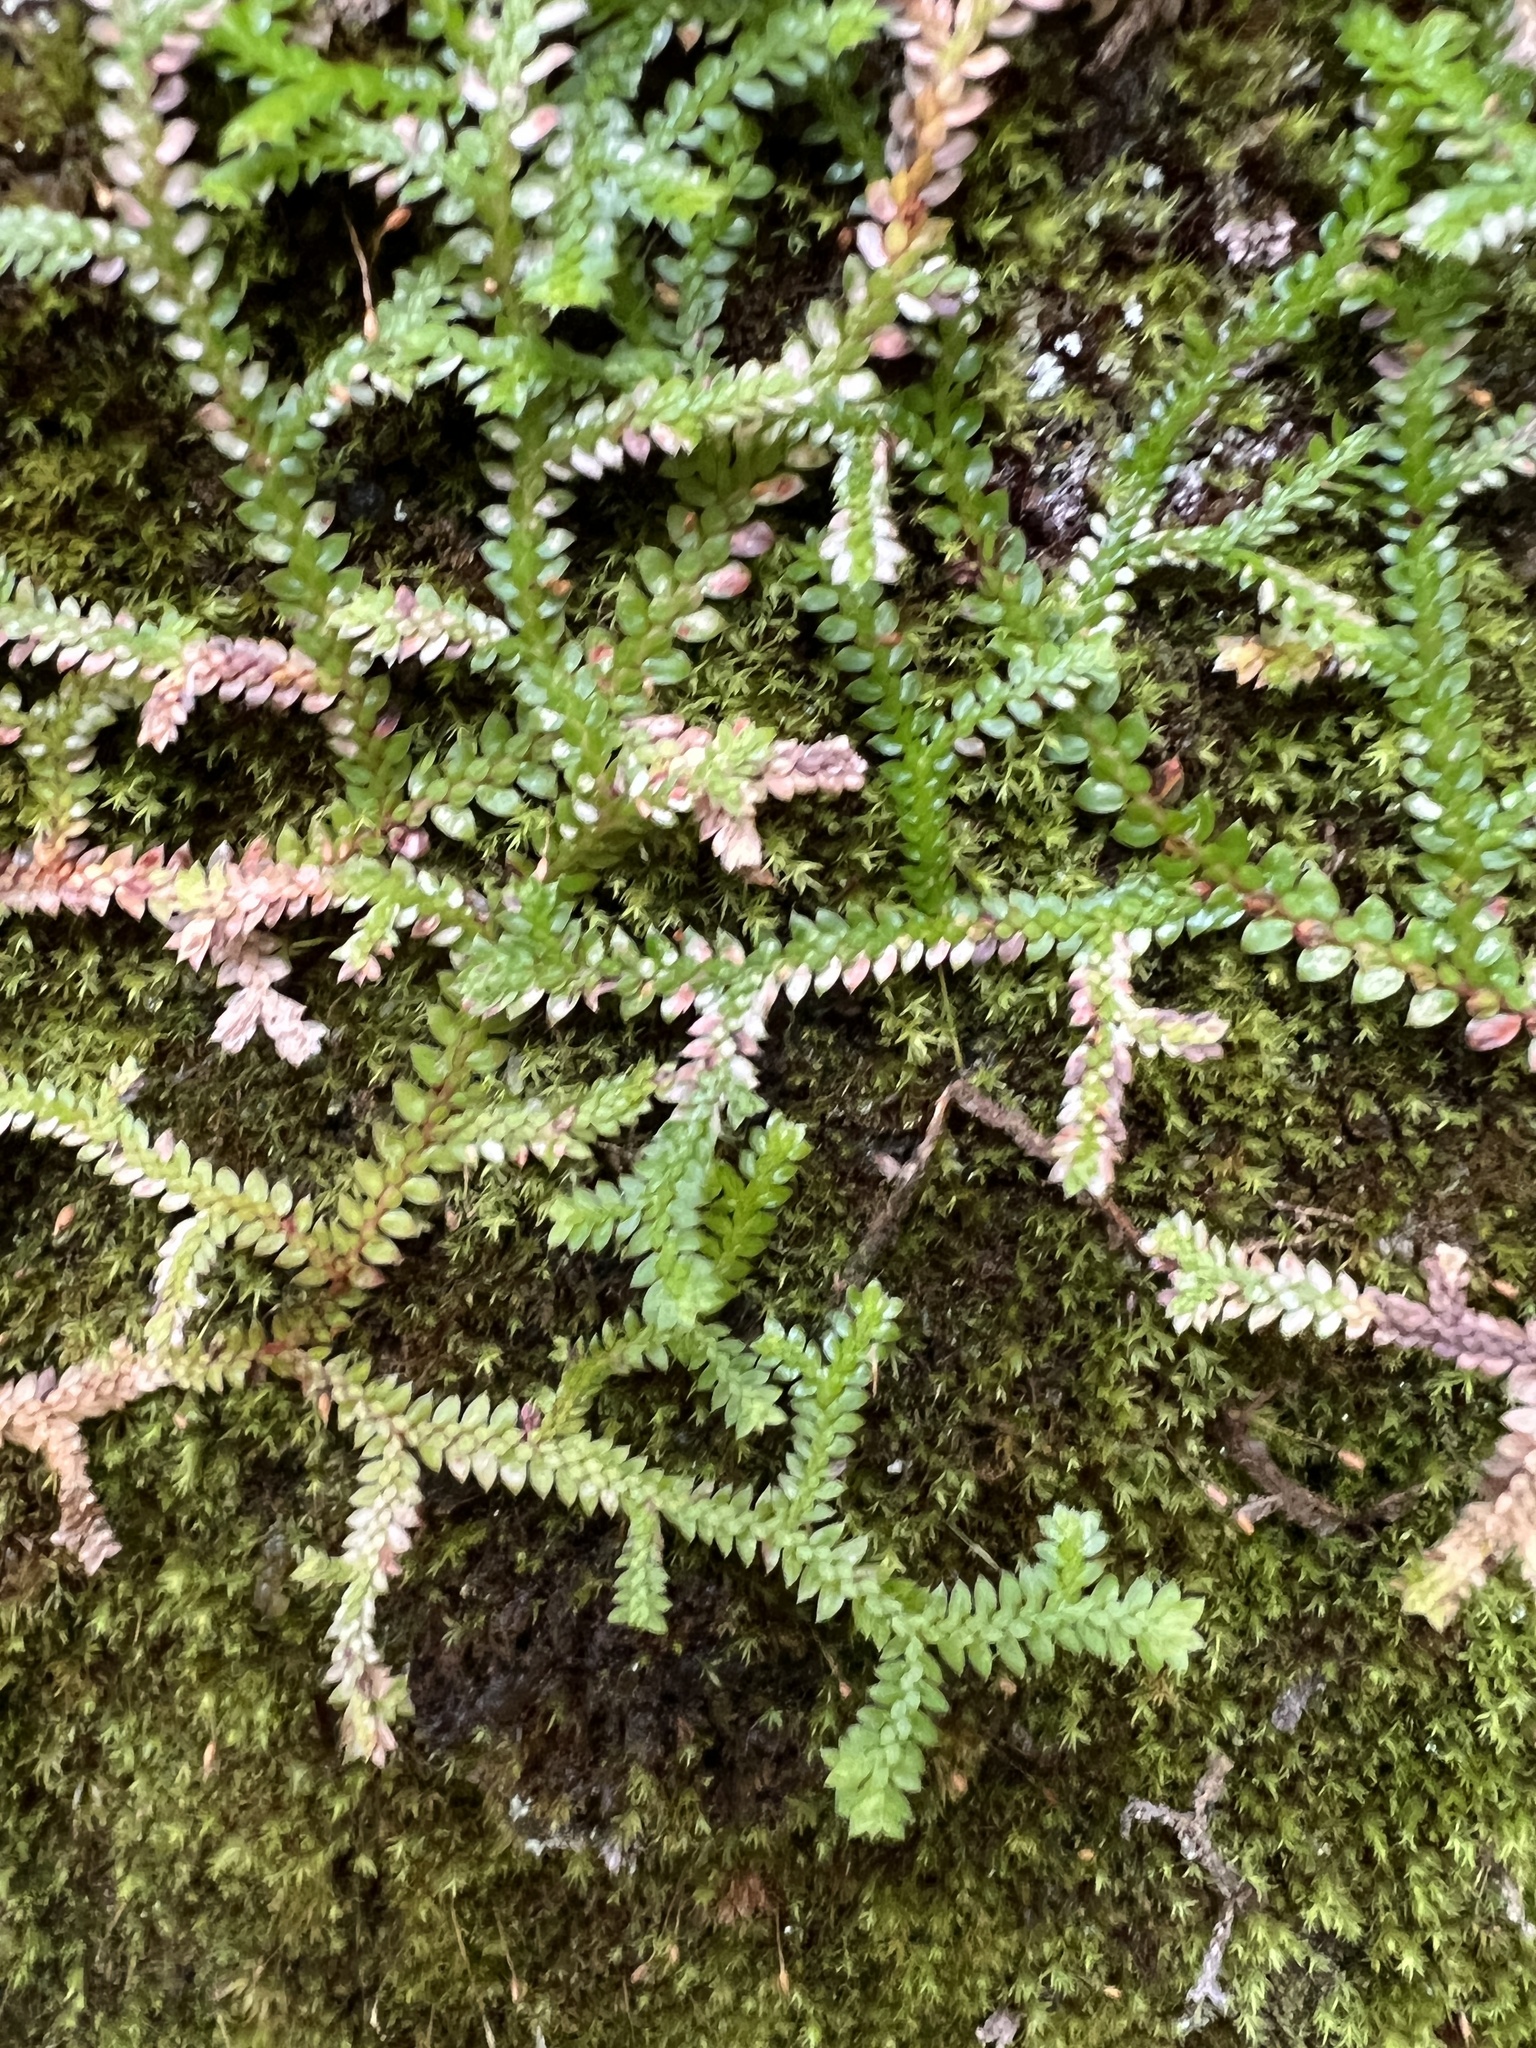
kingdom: Plantae
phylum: Tracheophyta
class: Lycopodiopsida
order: Selaginellales
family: Selaginellaceae
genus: Selaginella
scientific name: Selaginella denticulata
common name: Toothed-leaved clubmoss
